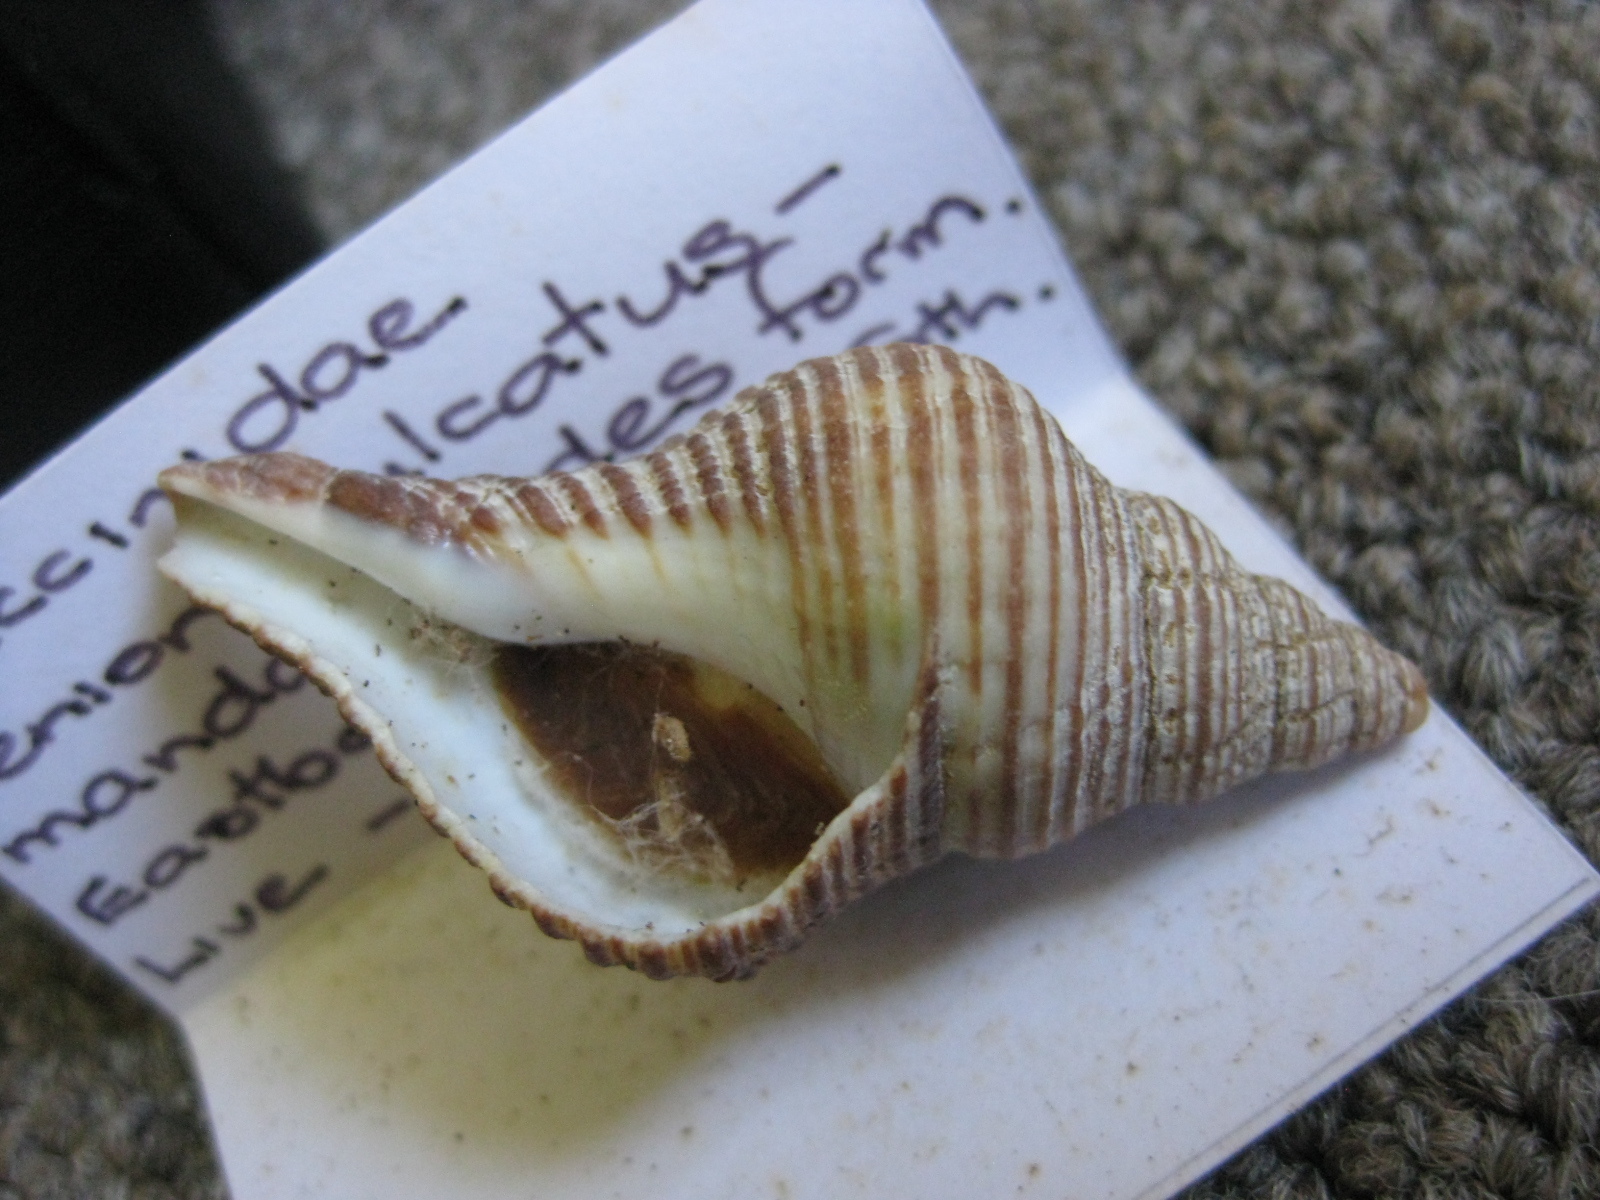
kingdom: Animalia
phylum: Mollusca
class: Gastropoda
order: Neogastropoda
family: Austrosiphonidae
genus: Penion
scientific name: Penion sulcatus
